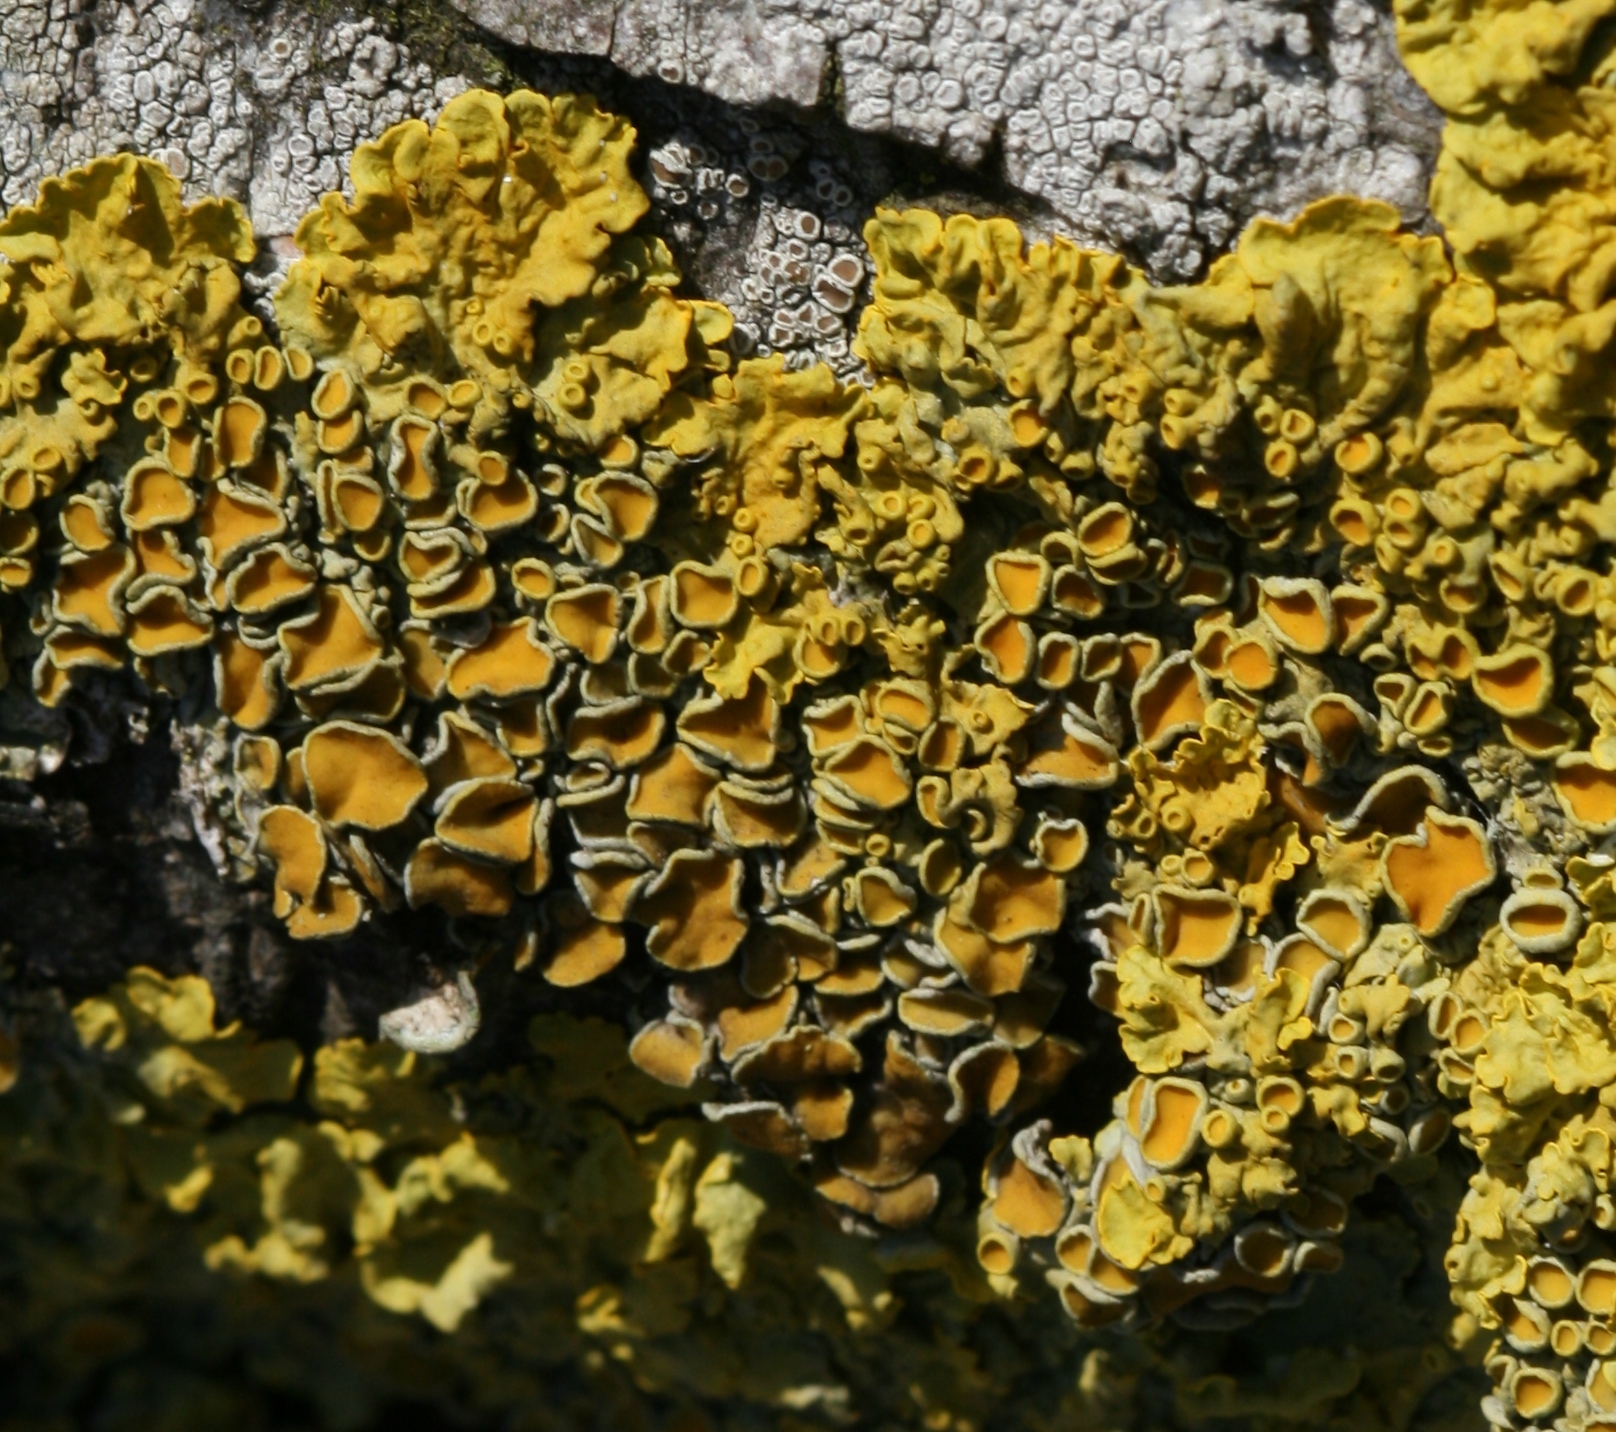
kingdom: Fungi
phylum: Ascomycota
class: Lecanoromycetes
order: Teloschistales
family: Teloschistaceae
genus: Xanthoria
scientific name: Xanthoria parietina
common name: Common orange lichen
